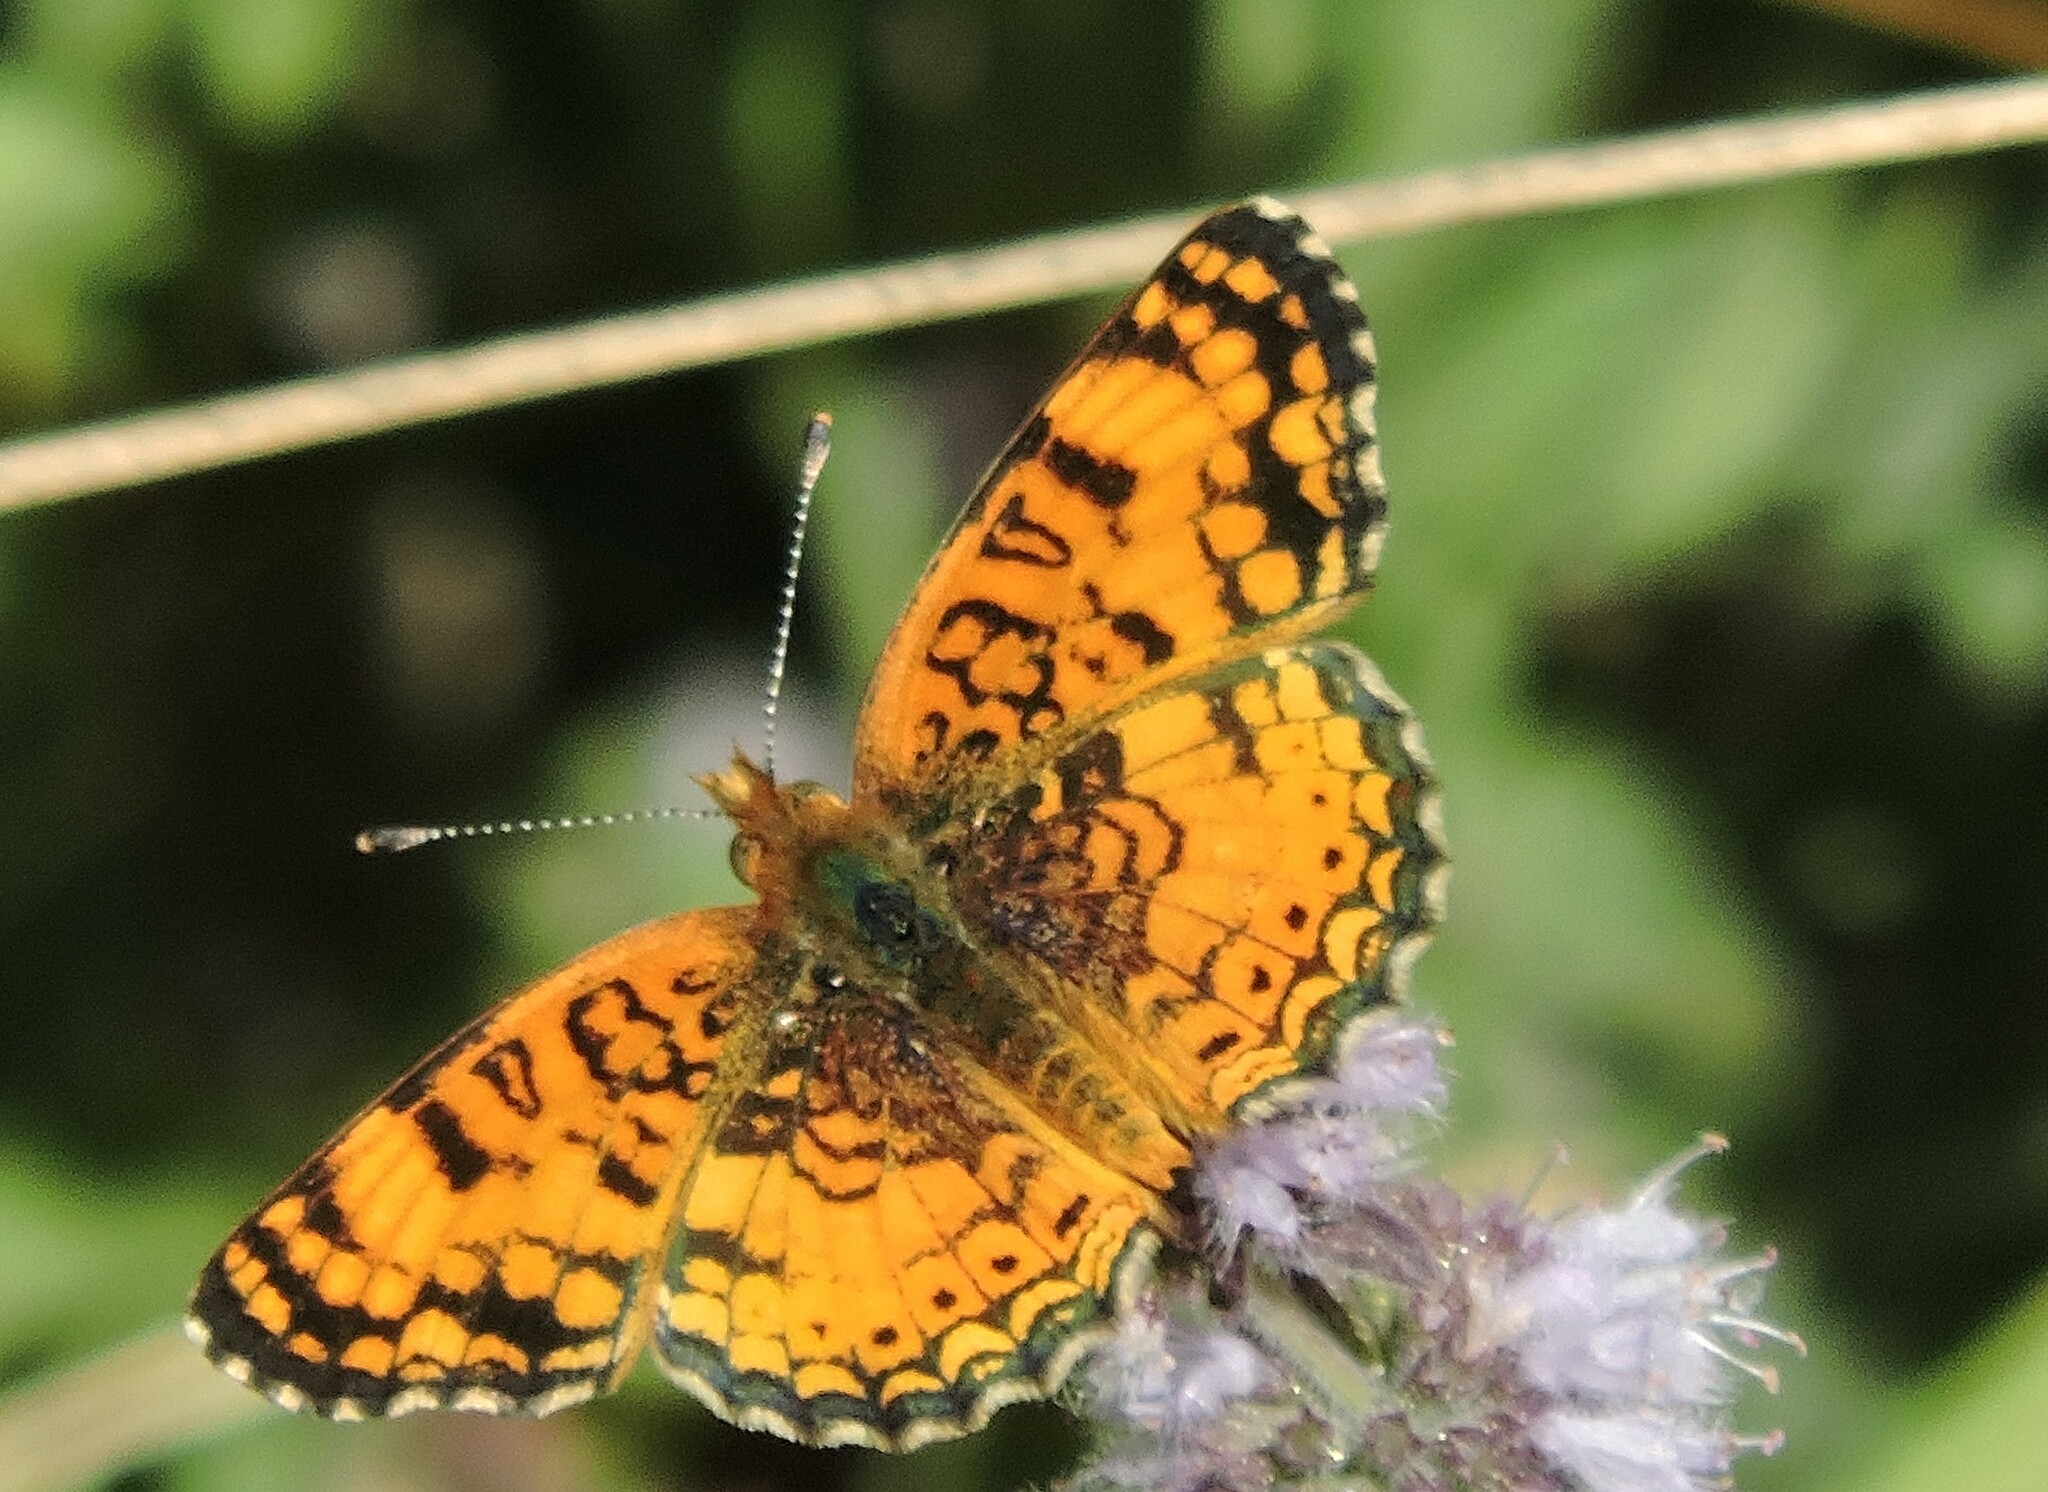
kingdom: Animalia
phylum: Arthropoda
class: Insecta
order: Lepidoptera
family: Nymphalidae
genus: Eresia
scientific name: Eresia aveyrona
